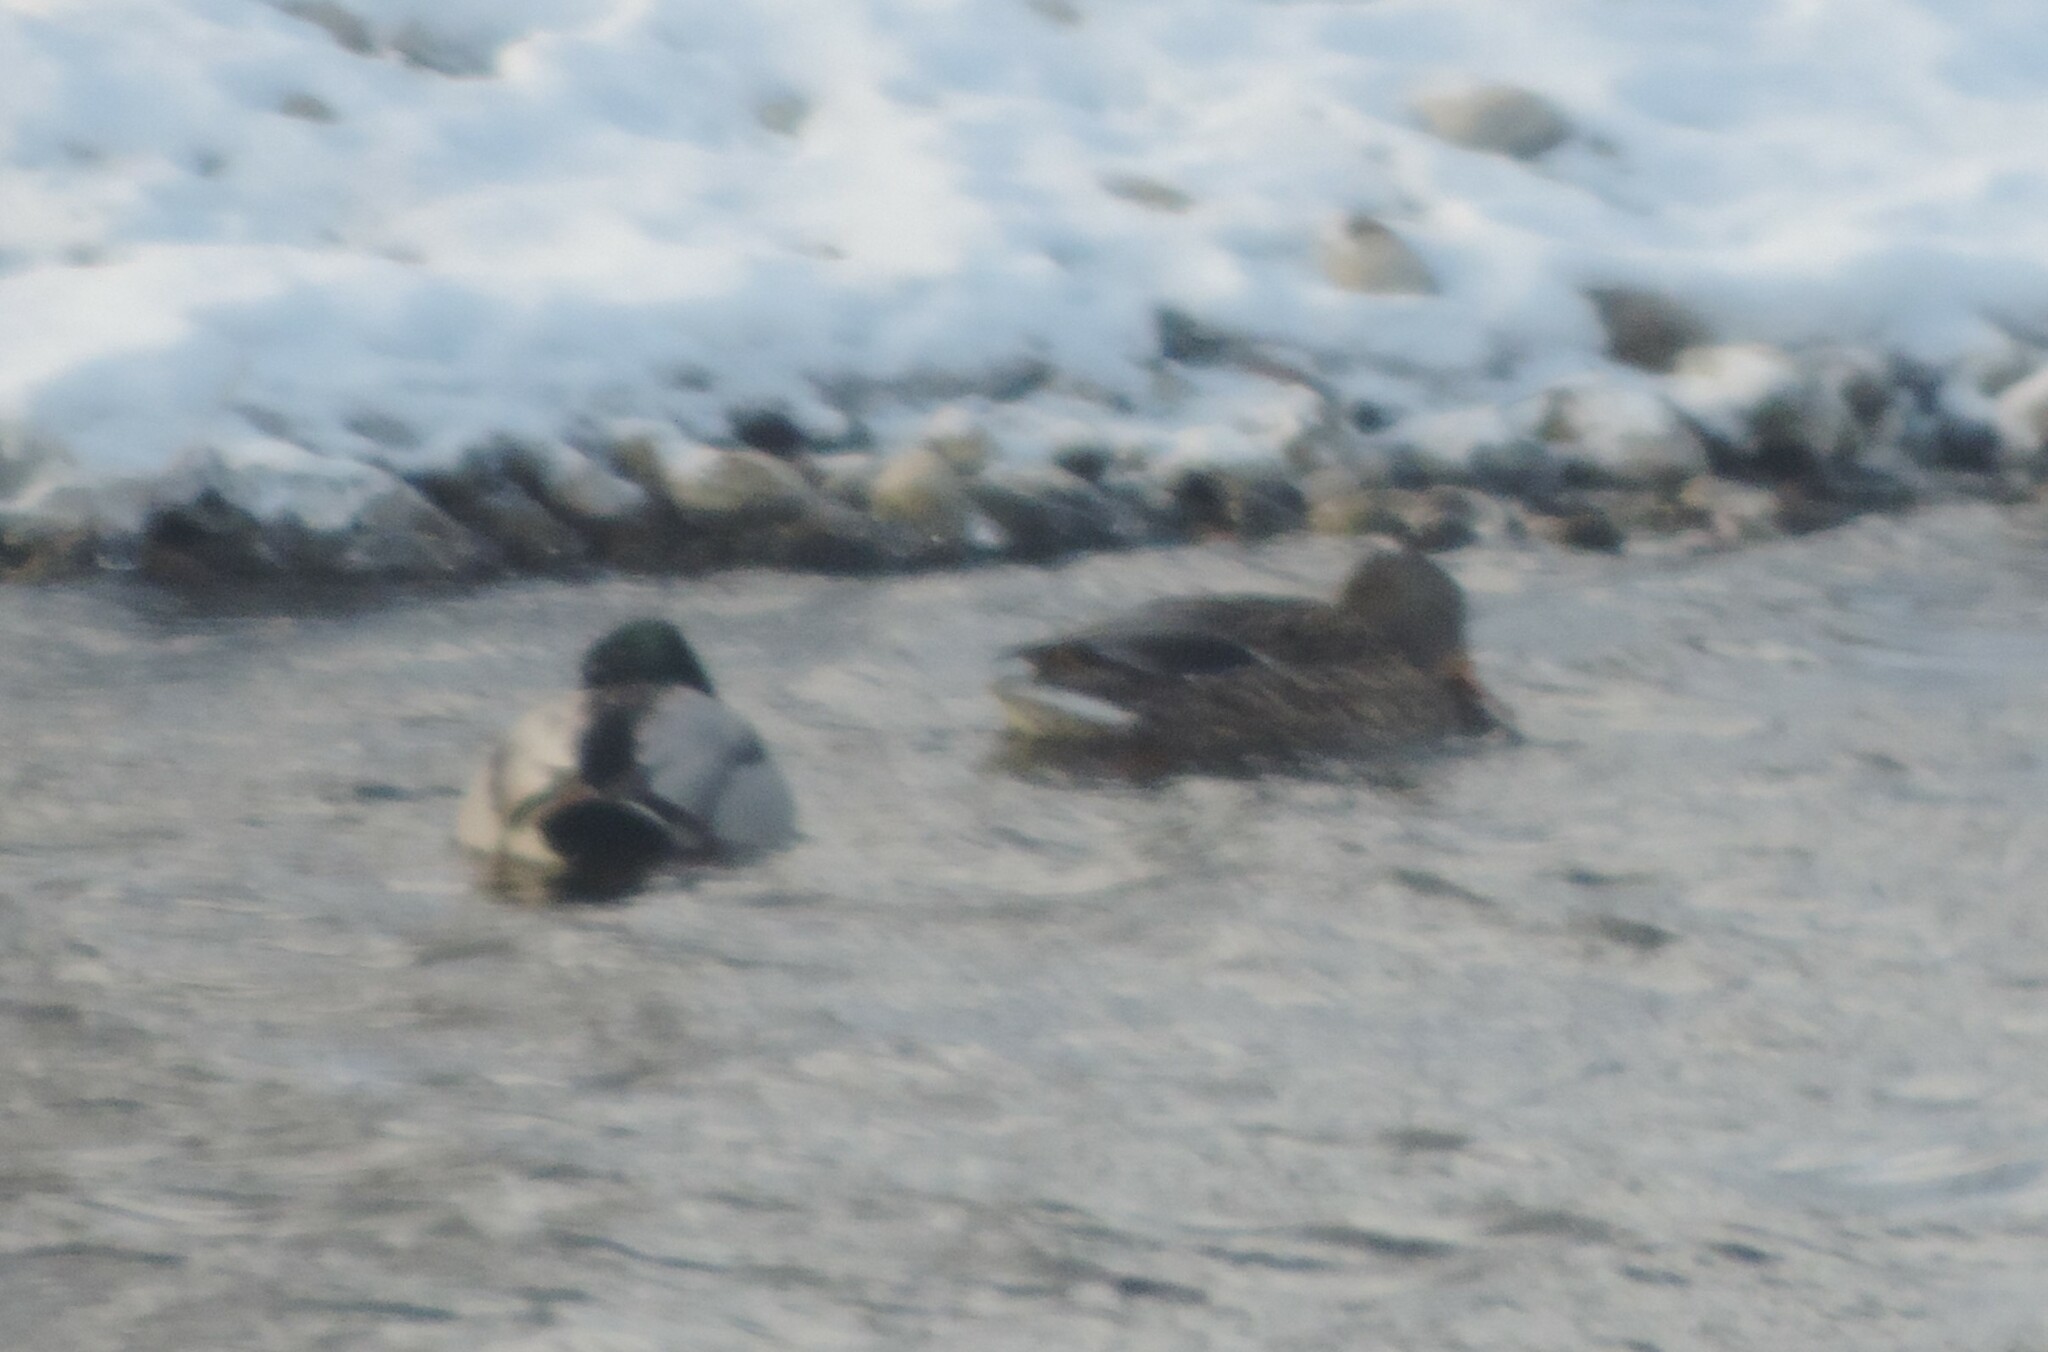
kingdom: Animalia
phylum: Chordata
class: Aves
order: Anseriformes
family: Anatidae
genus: Anas
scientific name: Anas platyrhynchos
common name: Mallard
